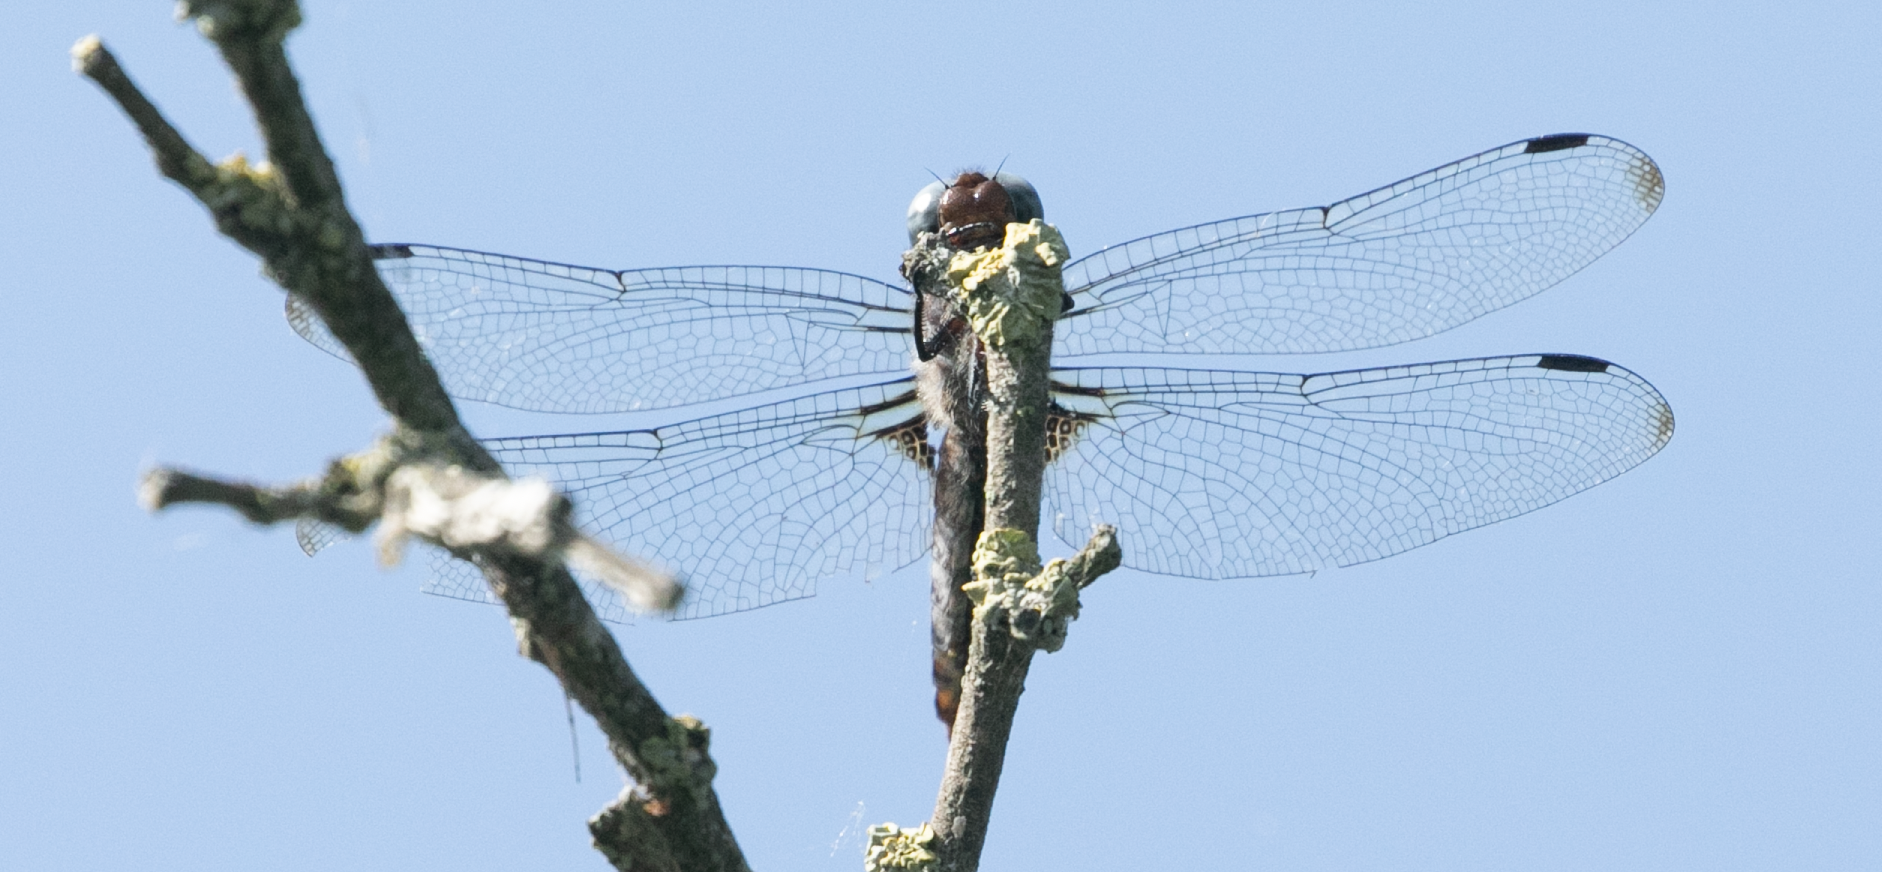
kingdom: Animalia
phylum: Arthropoda
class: Insecta
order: Odonata
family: Libellulidae
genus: Libellula
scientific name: Libellula fulva
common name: Blue chaser
